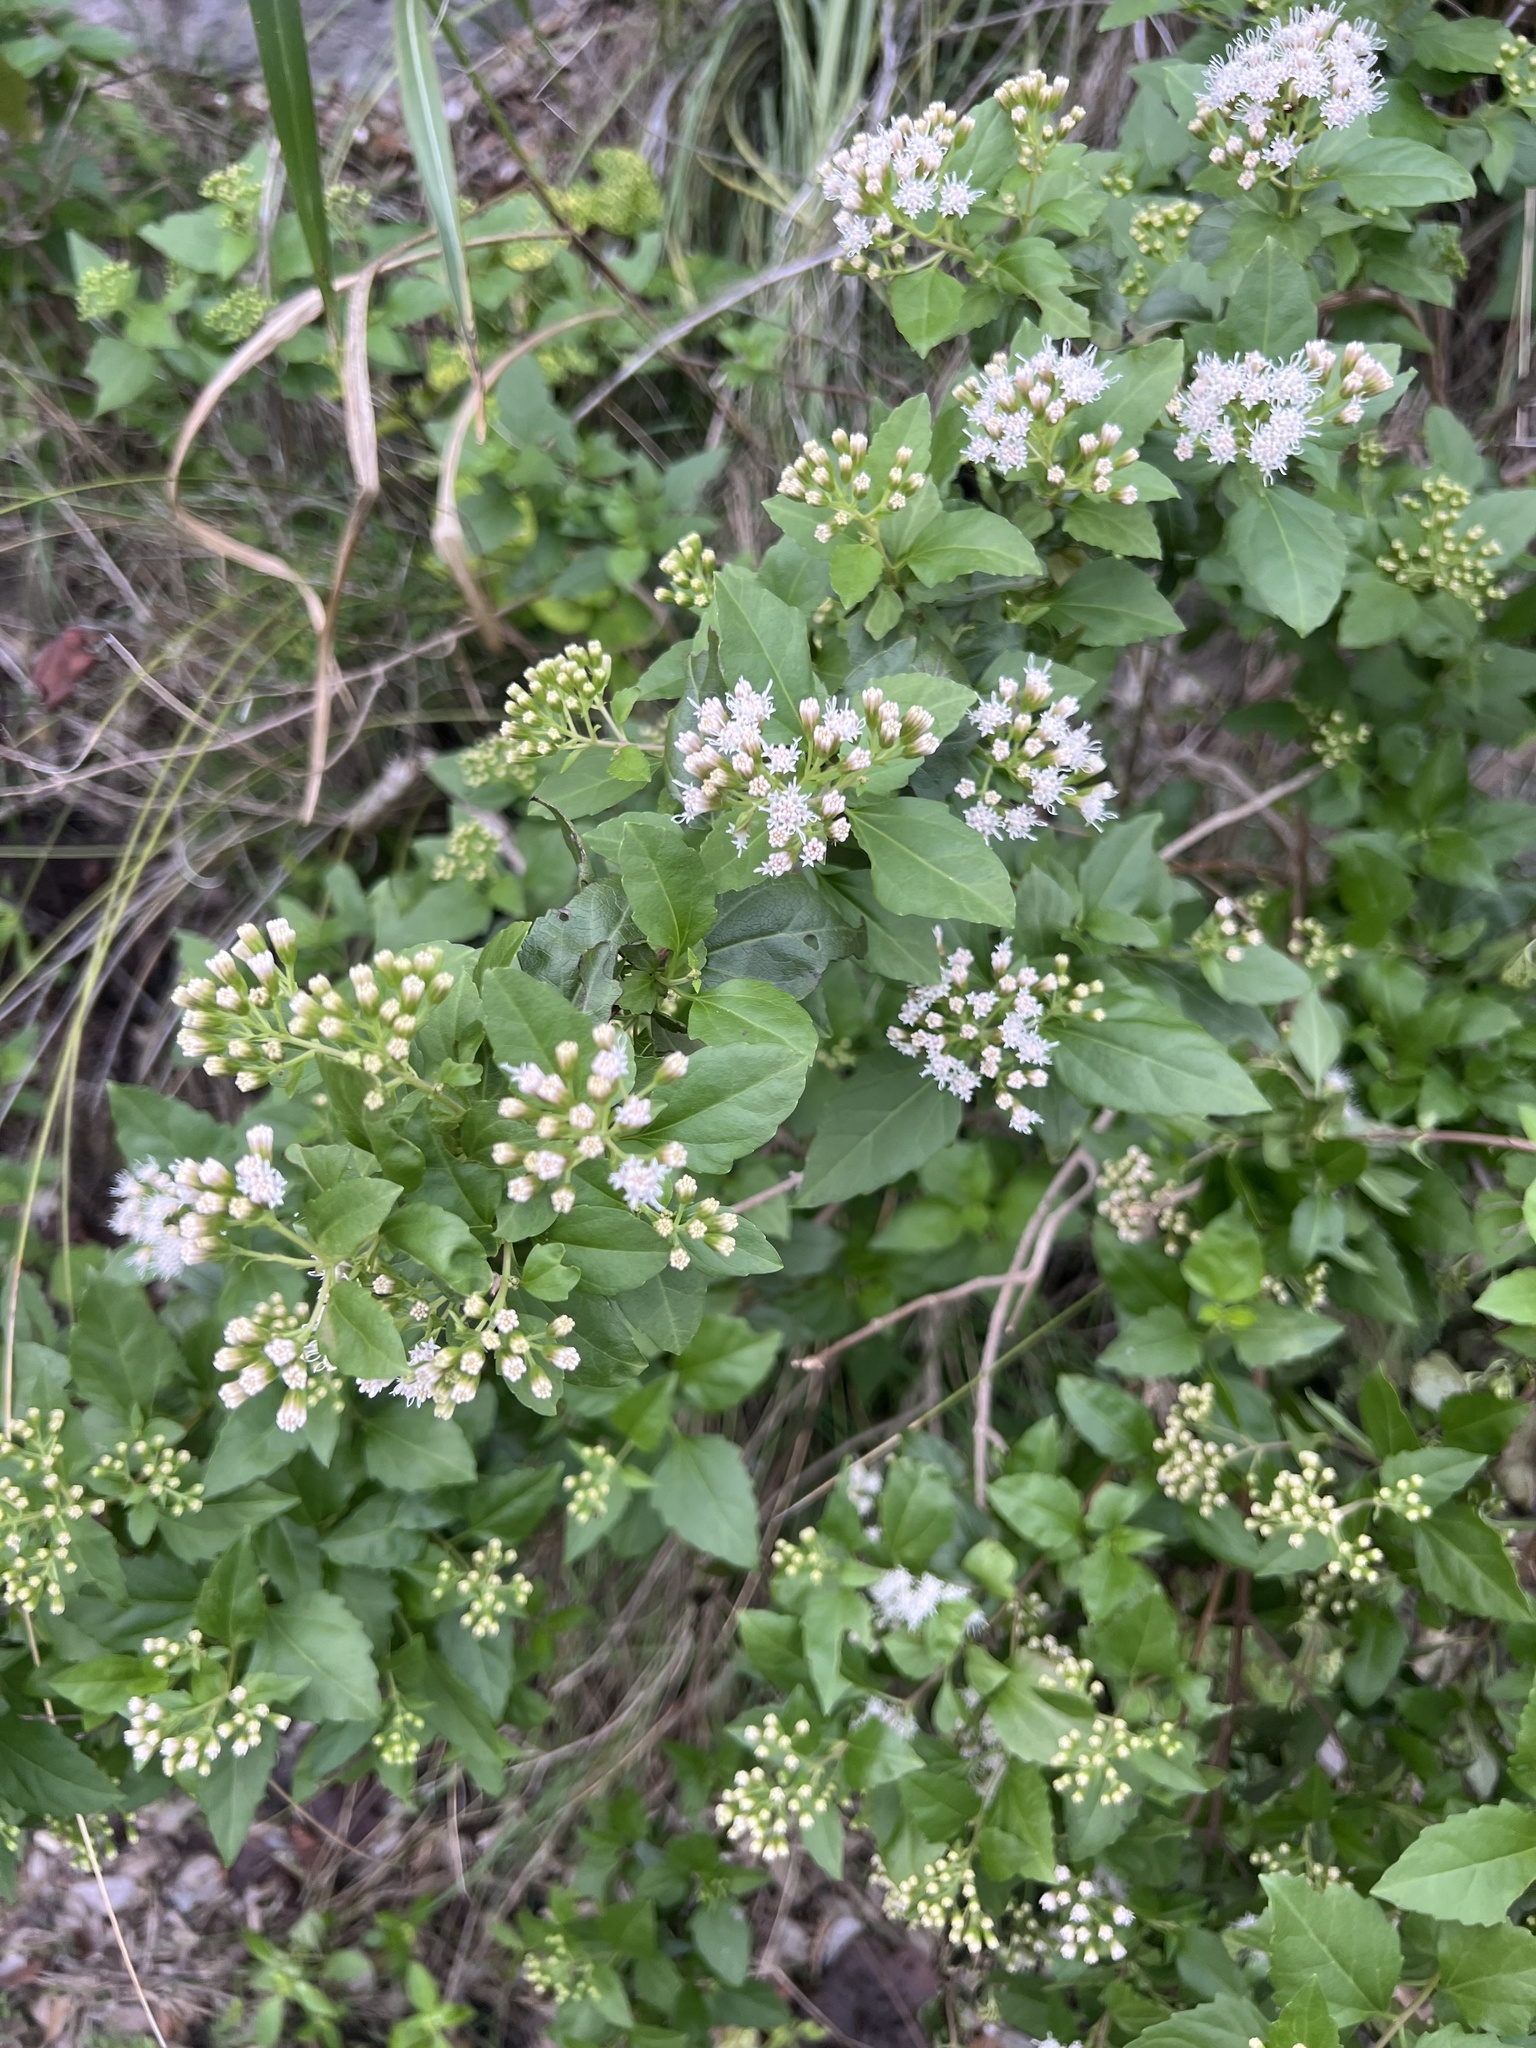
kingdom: Plantae
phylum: Tracheophyta
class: Magnoliopsida
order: Asterales
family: Asteraceae
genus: Ageratina
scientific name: Ageratina havanensis
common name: Havana snakeroot
